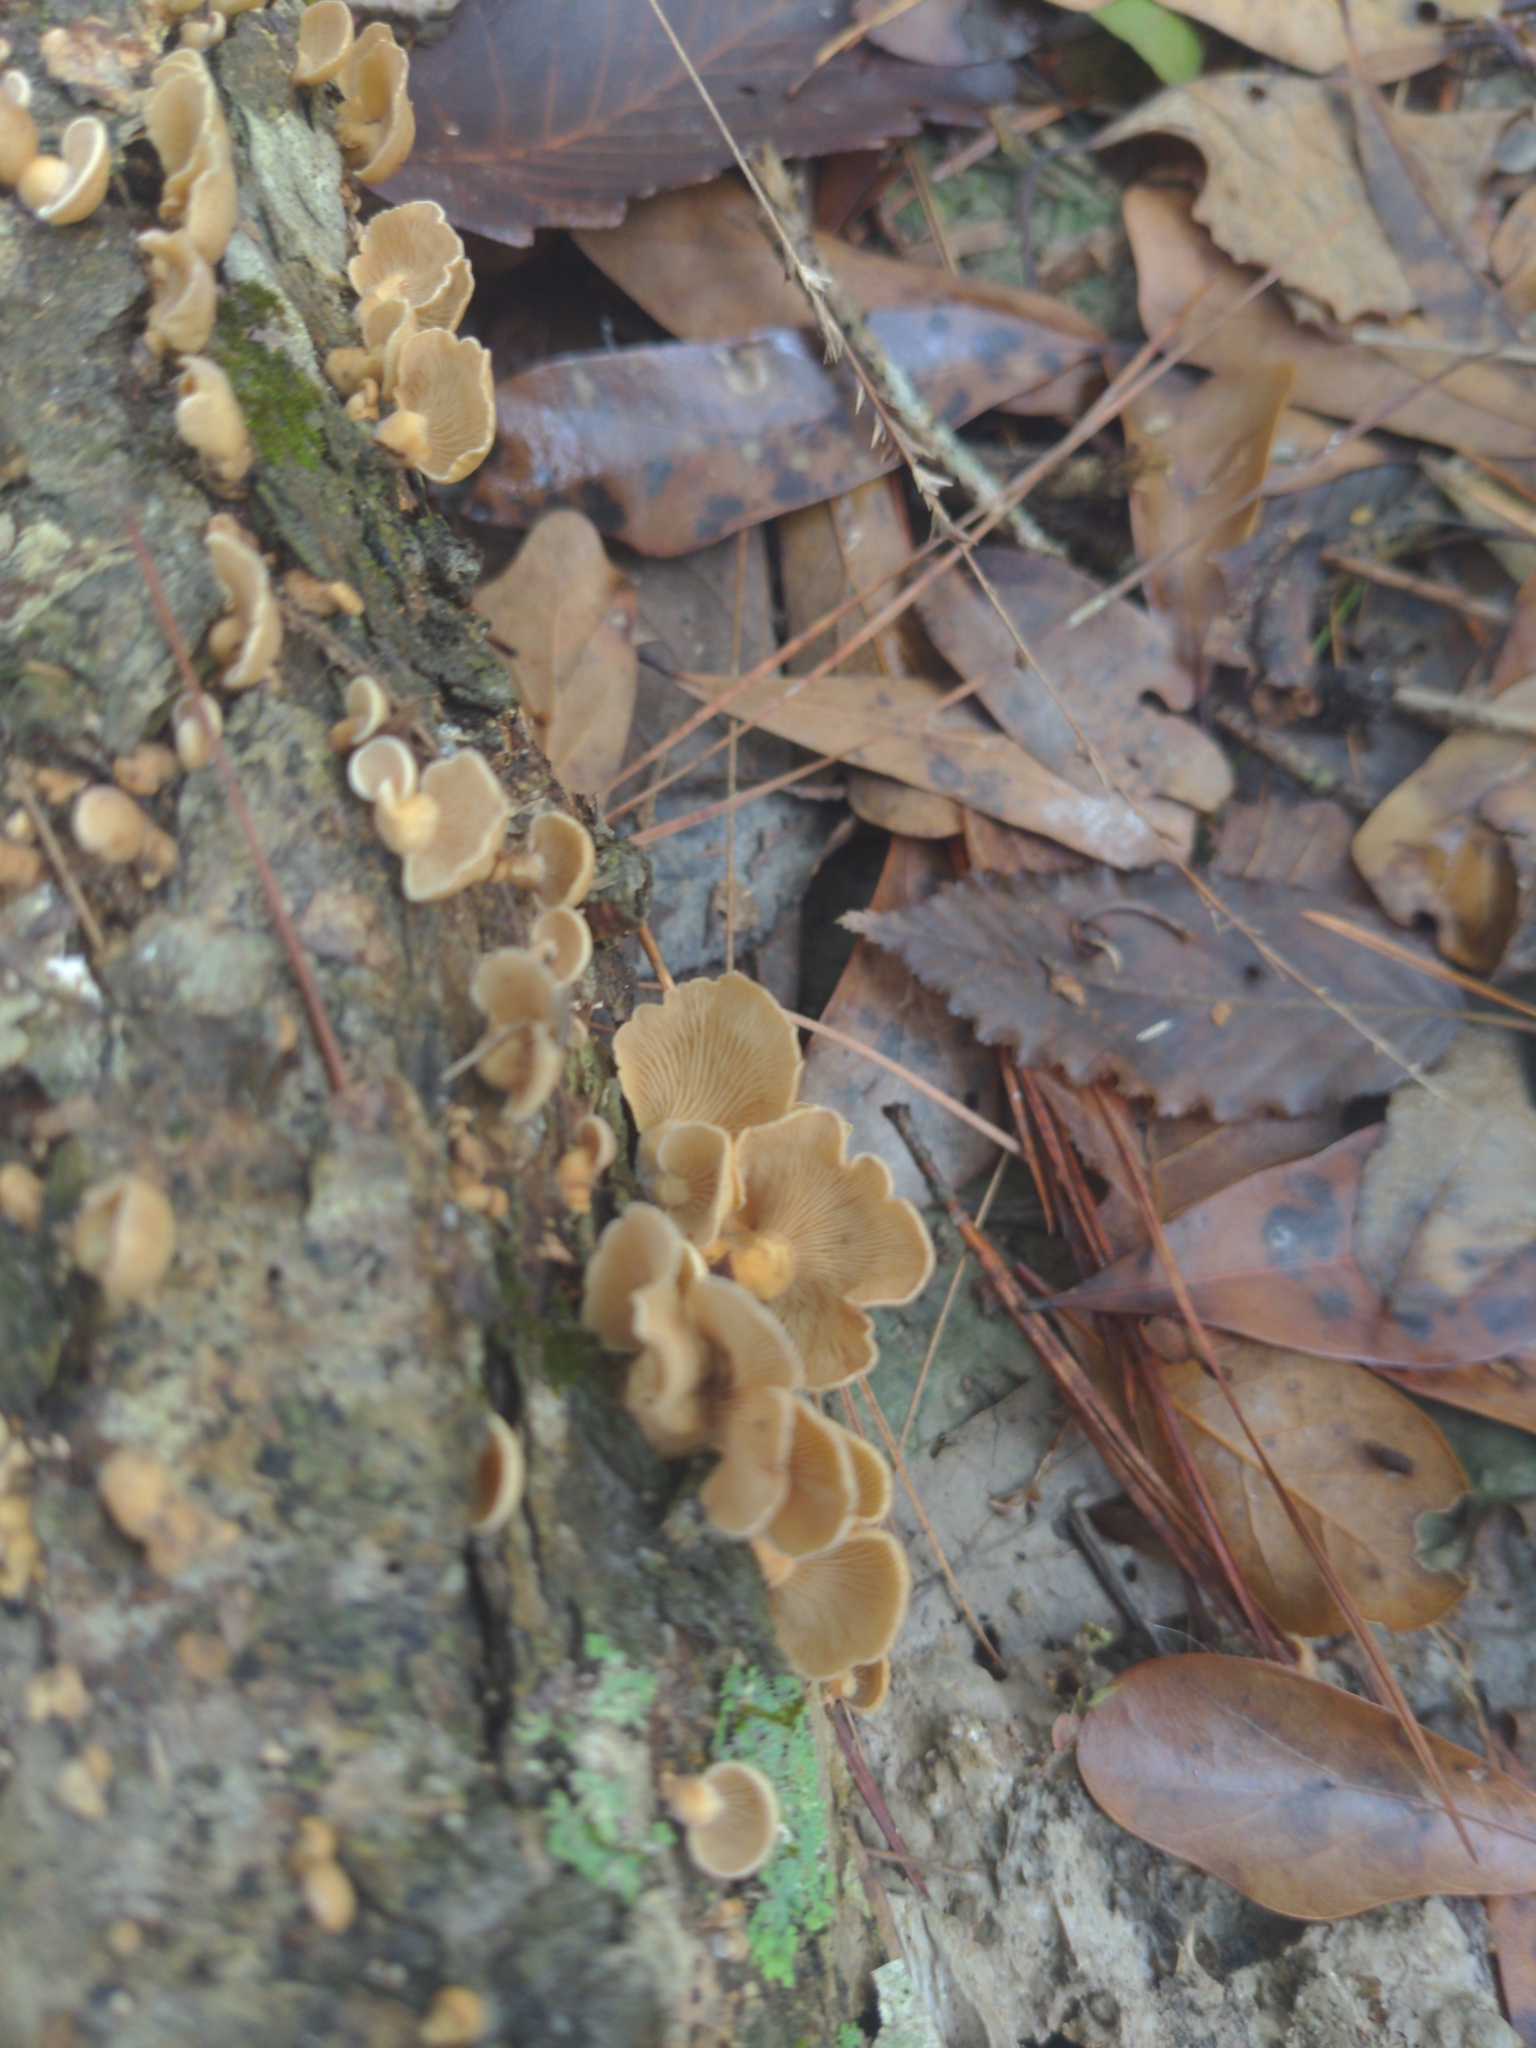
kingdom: Fungi
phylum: Basidiomycota
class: Agaricomycetes
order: Agaricales
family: Mycenaceae
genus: Panellus
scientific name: Panellus stipticus
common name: Bitter oysterling
